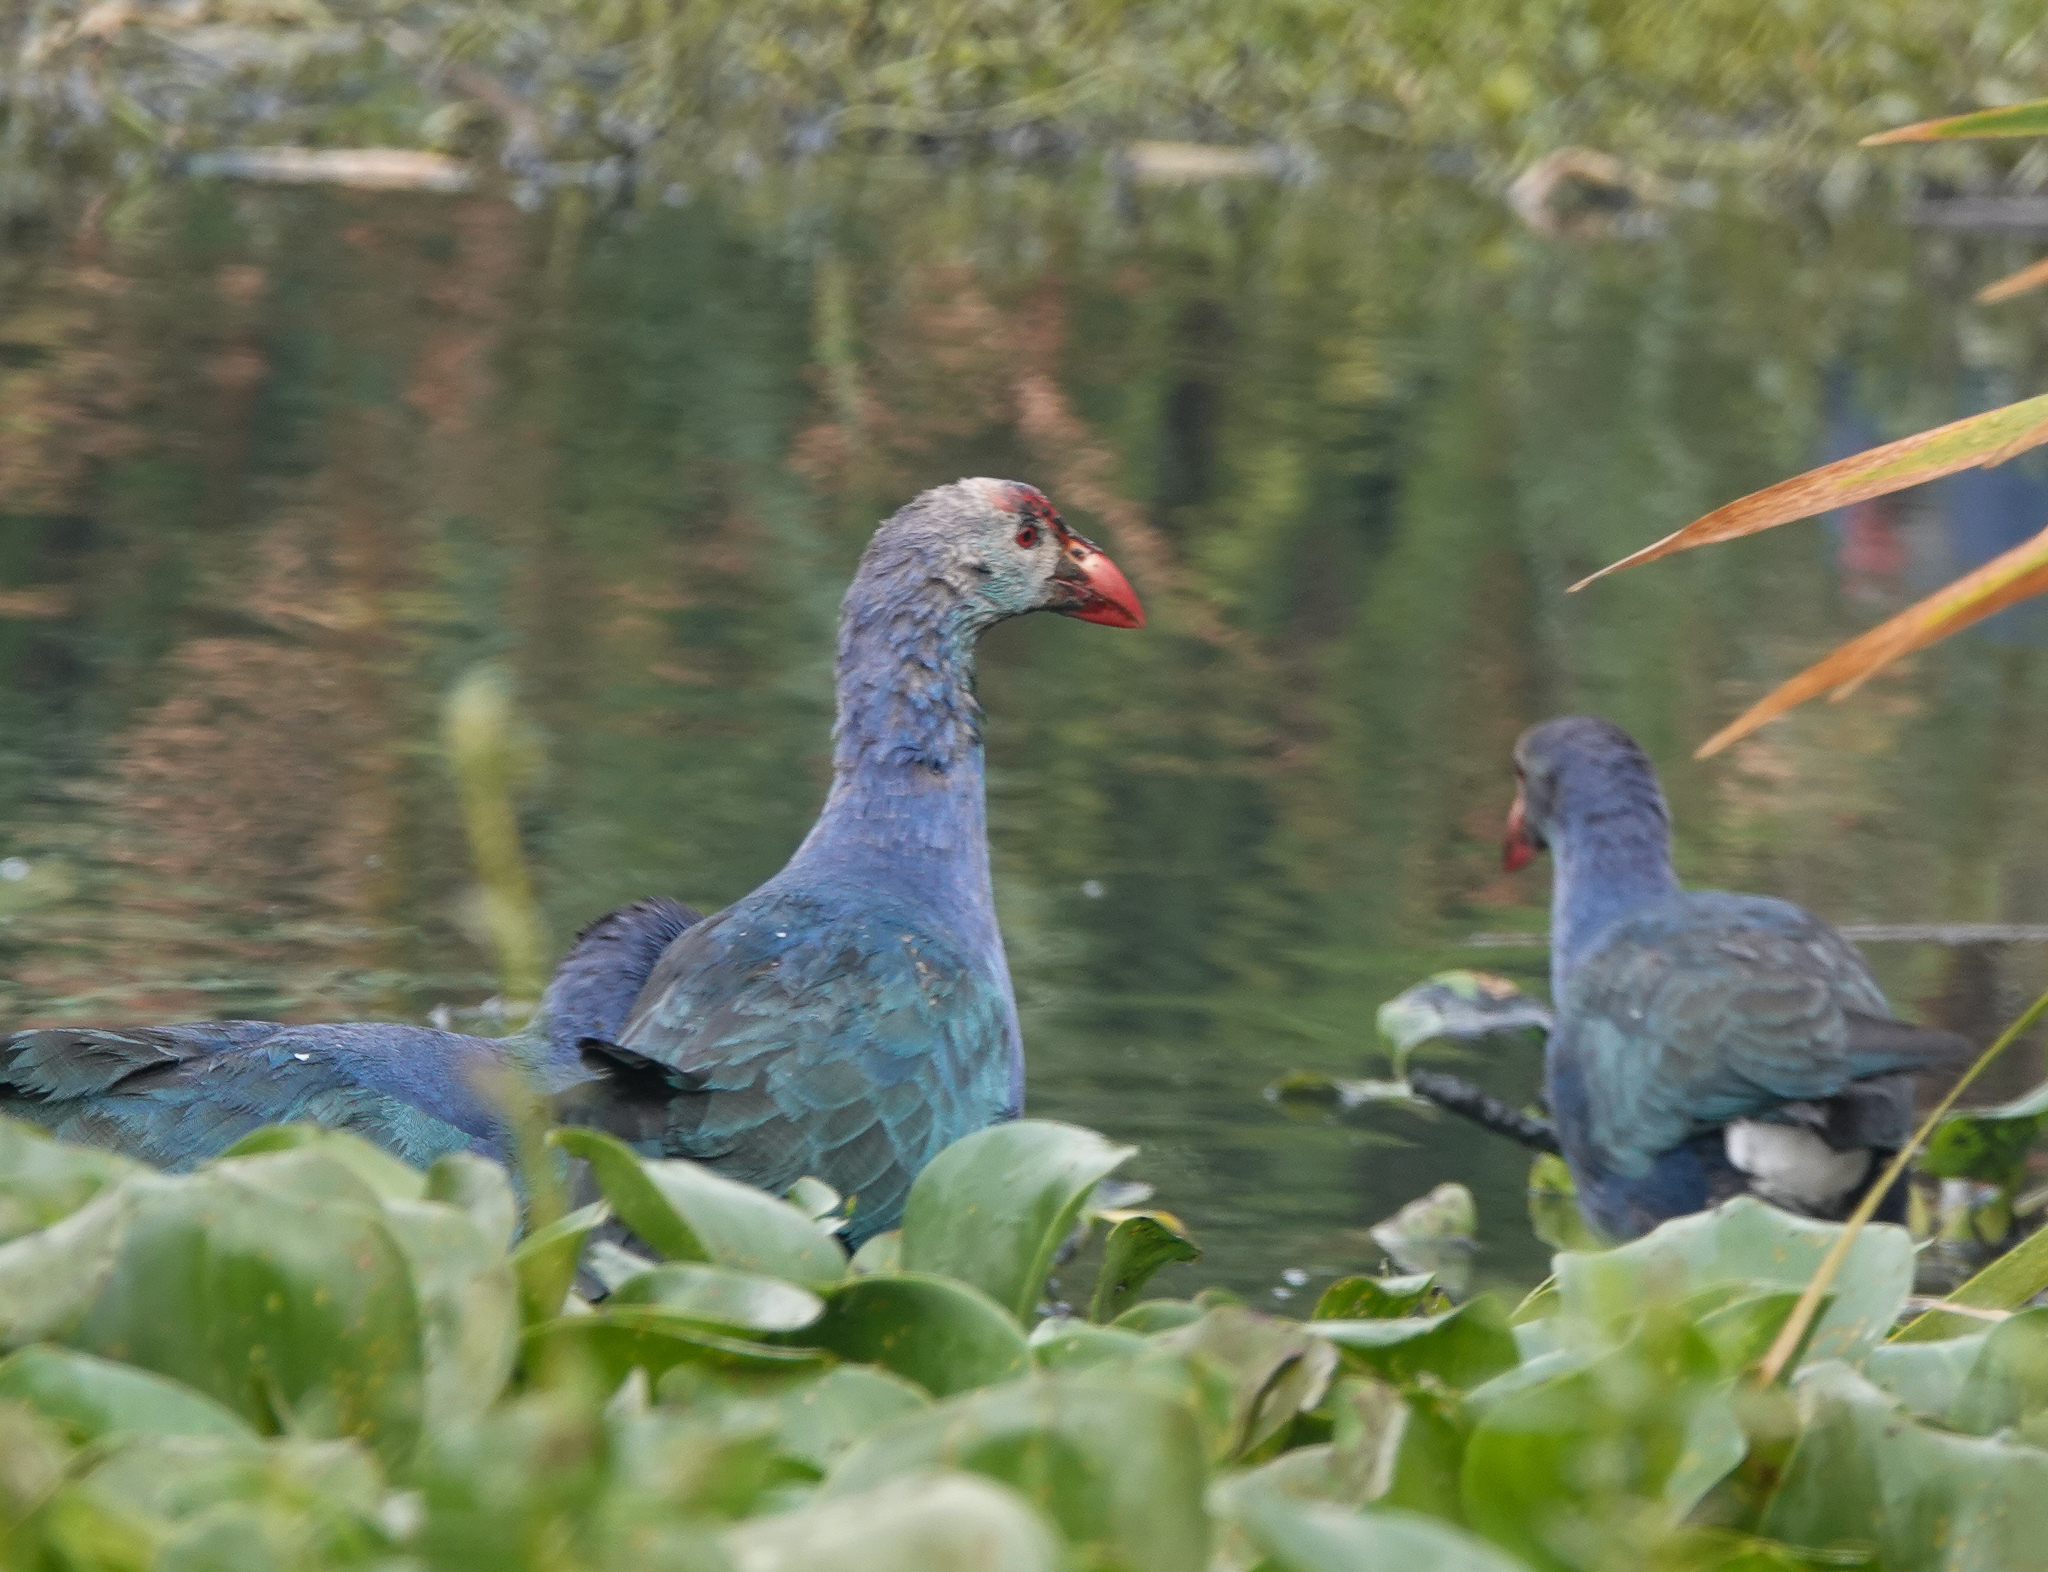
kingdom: Animalia
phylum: Chordata
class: Aves
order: Gruiformes
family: Rallidae
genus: Porphyrio
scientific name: Porphyrio porphyrio
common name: Purple swamphen
